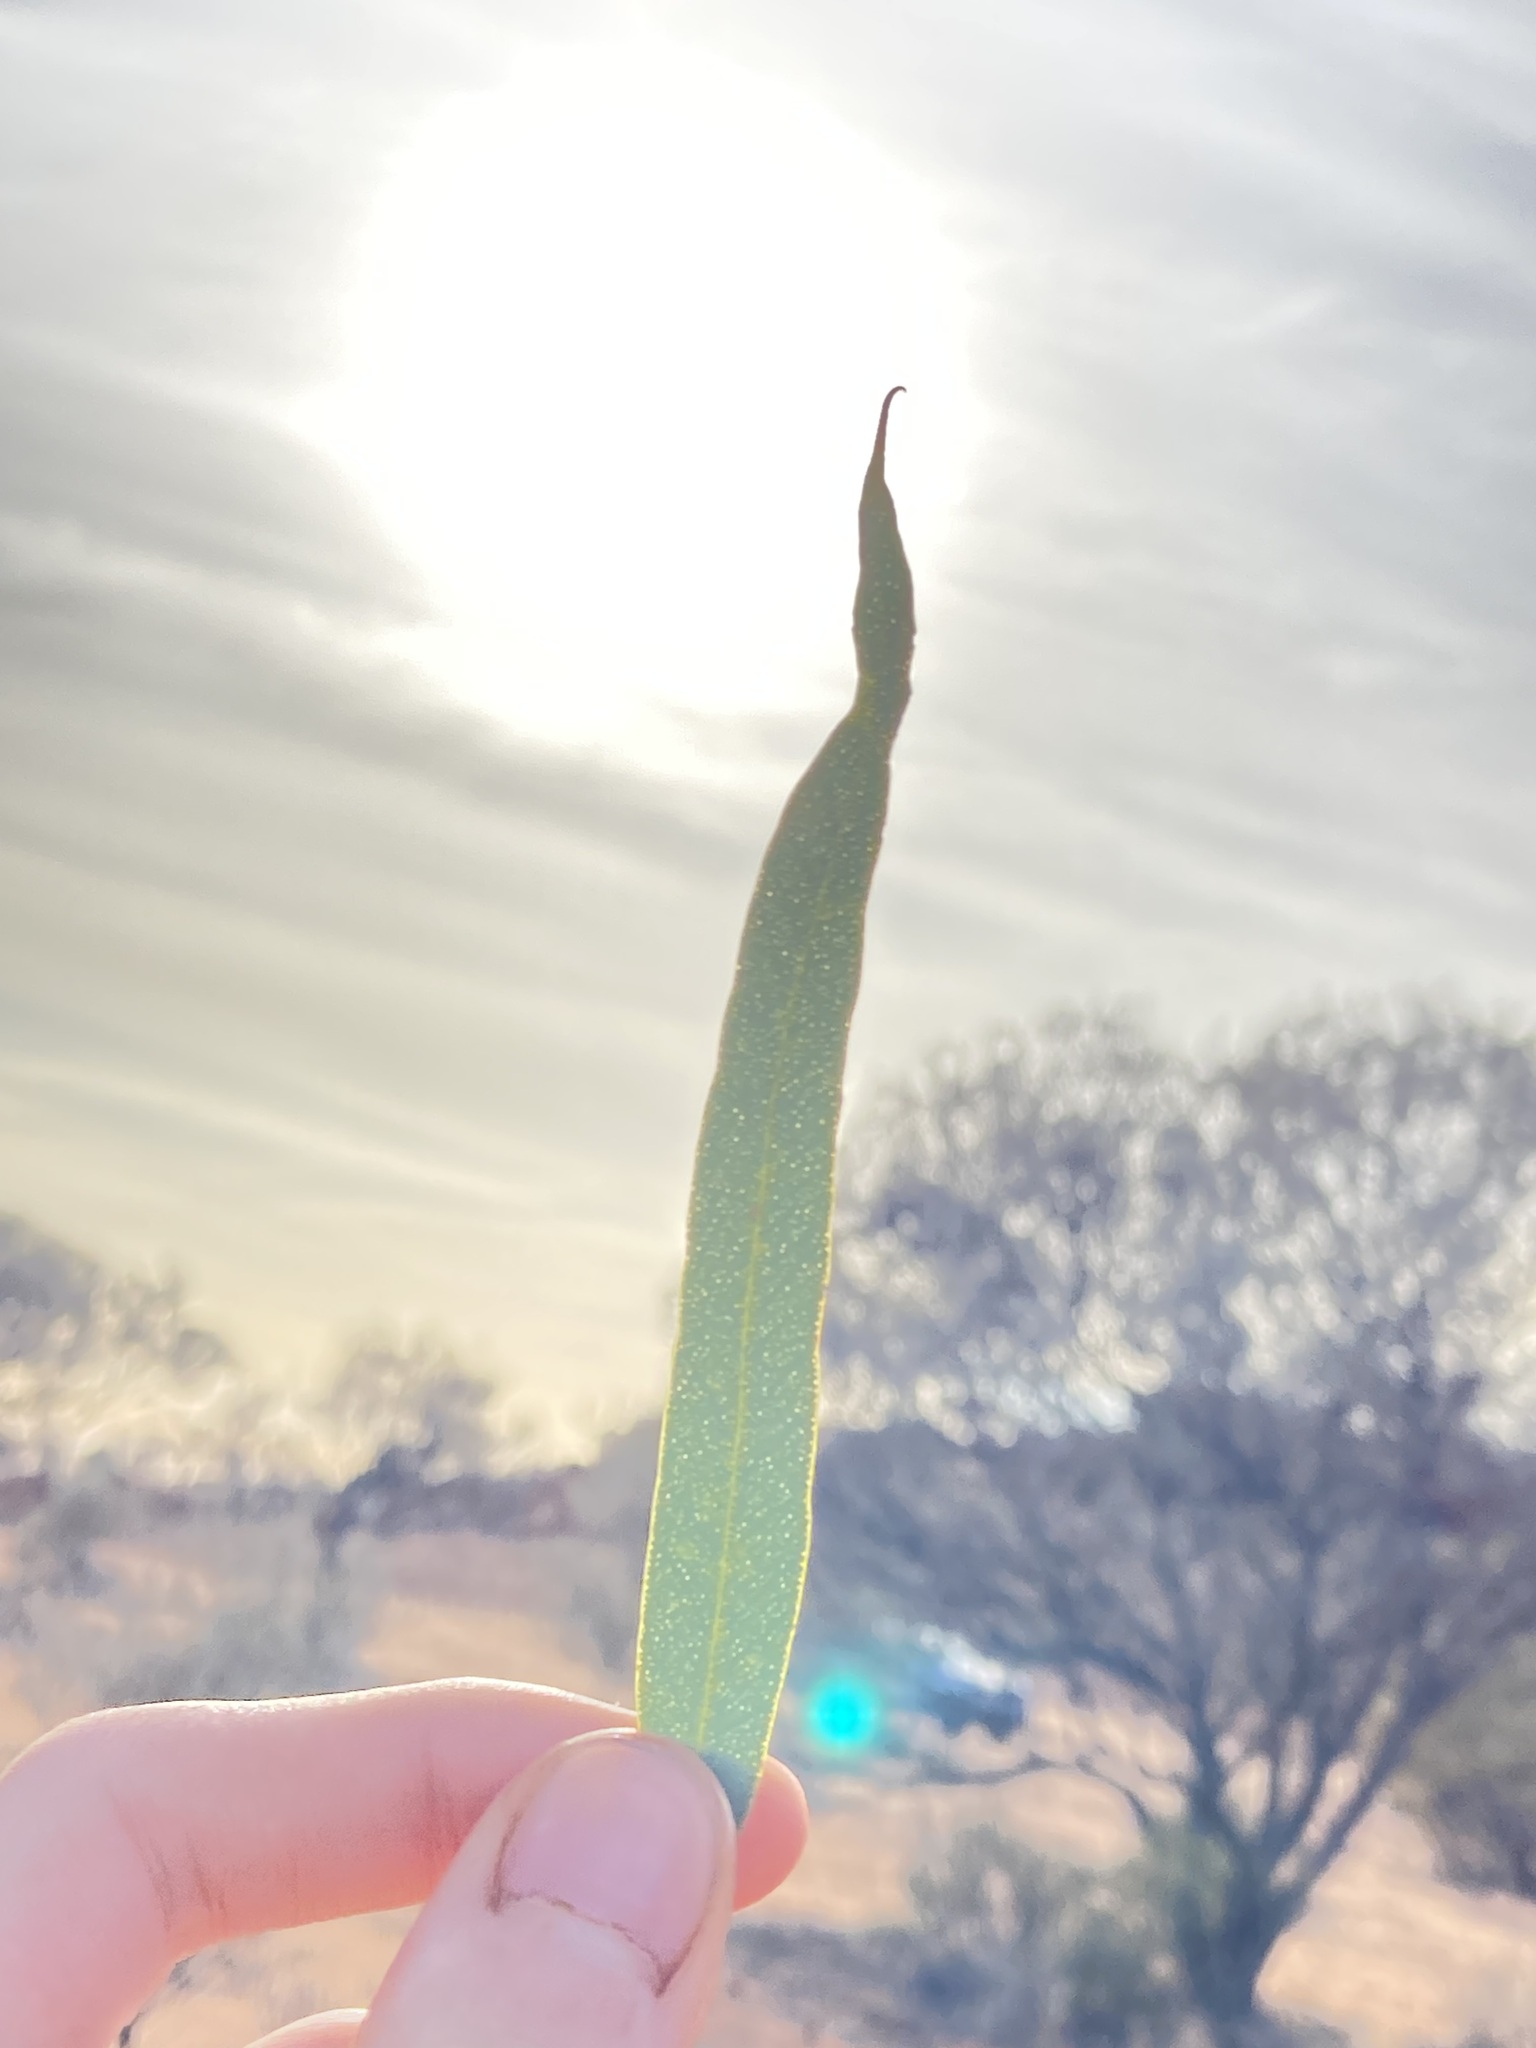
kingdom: Plantae
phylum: Tracheophyta
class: Magnoliopsida
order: Myrtales
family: Myrtaceae
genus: Eucalyptus
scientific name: Eucalyptus eremicola
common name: Nawa mallee
